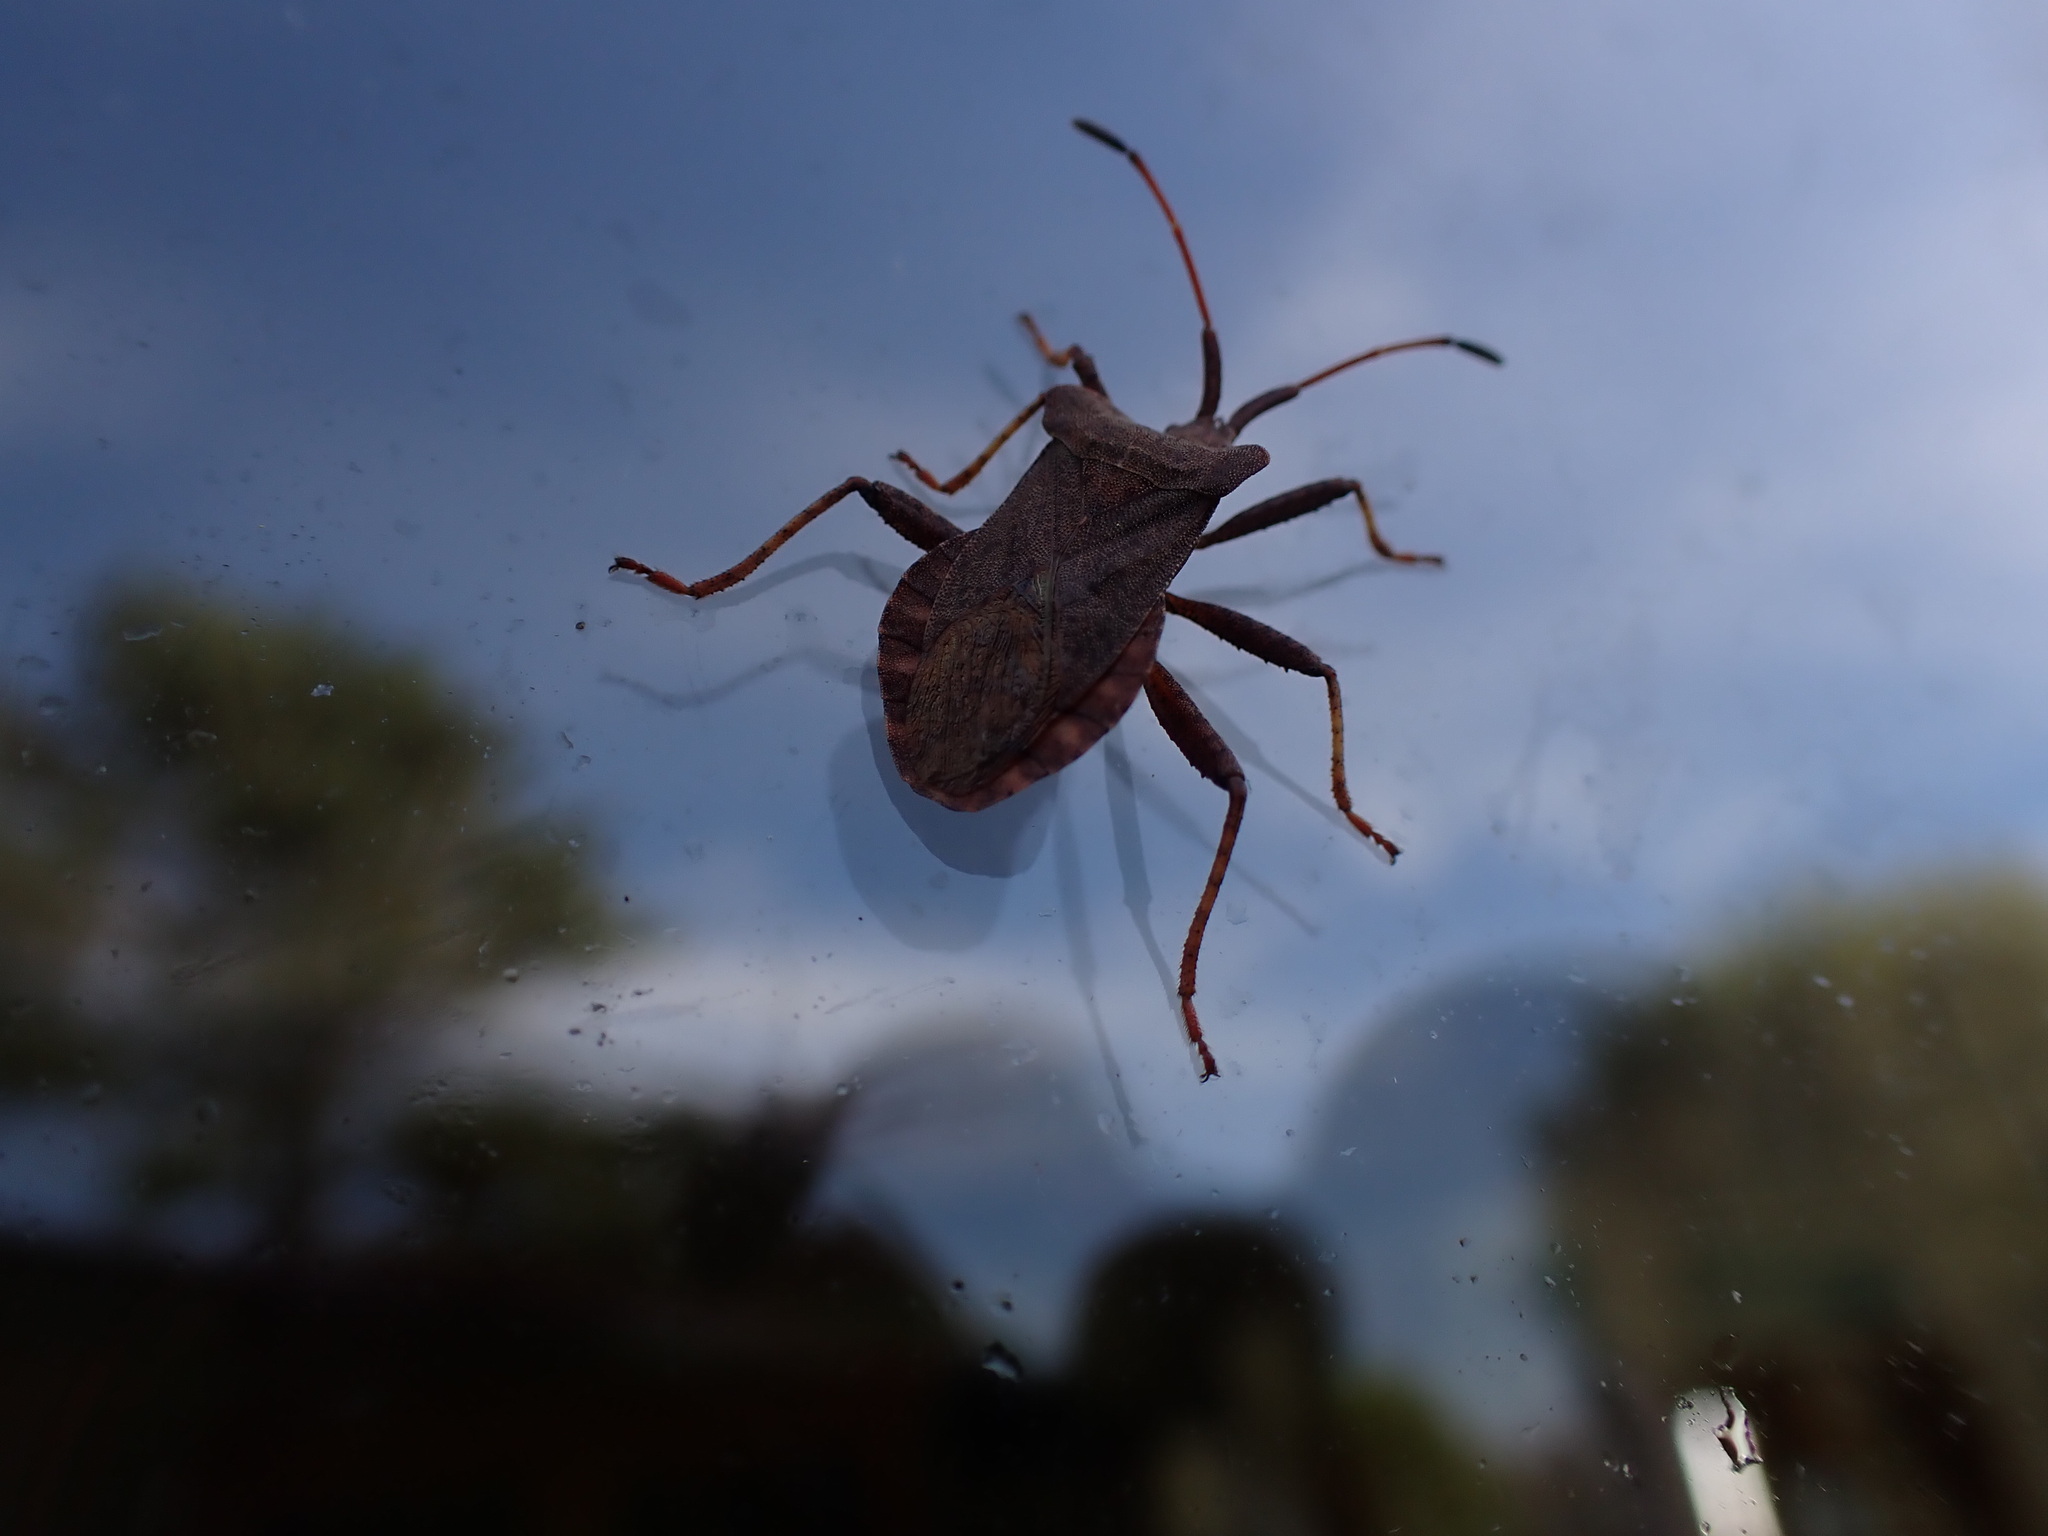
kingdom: Animalia
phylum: Arthropoda
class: Insecta
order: Hemiptera
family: Coreidae
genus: Coreus
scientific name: Coreus marginatus
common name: Dock bug
